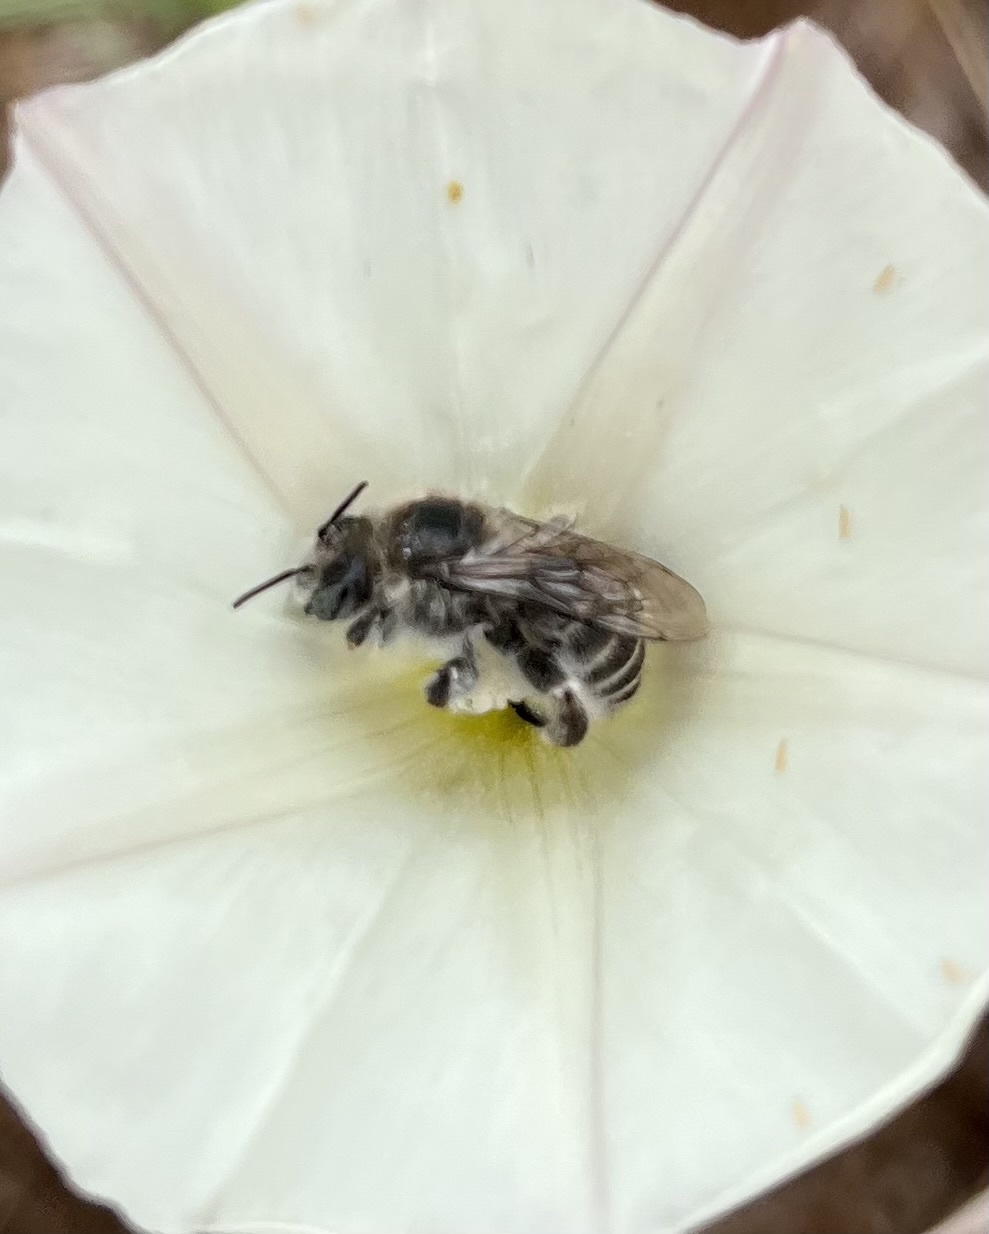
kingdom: Animalia
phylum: Arthropoda
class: Insecta
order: Hymenoptera
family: Apidae
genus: Diadasia
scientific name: Diadasia bituberculata
